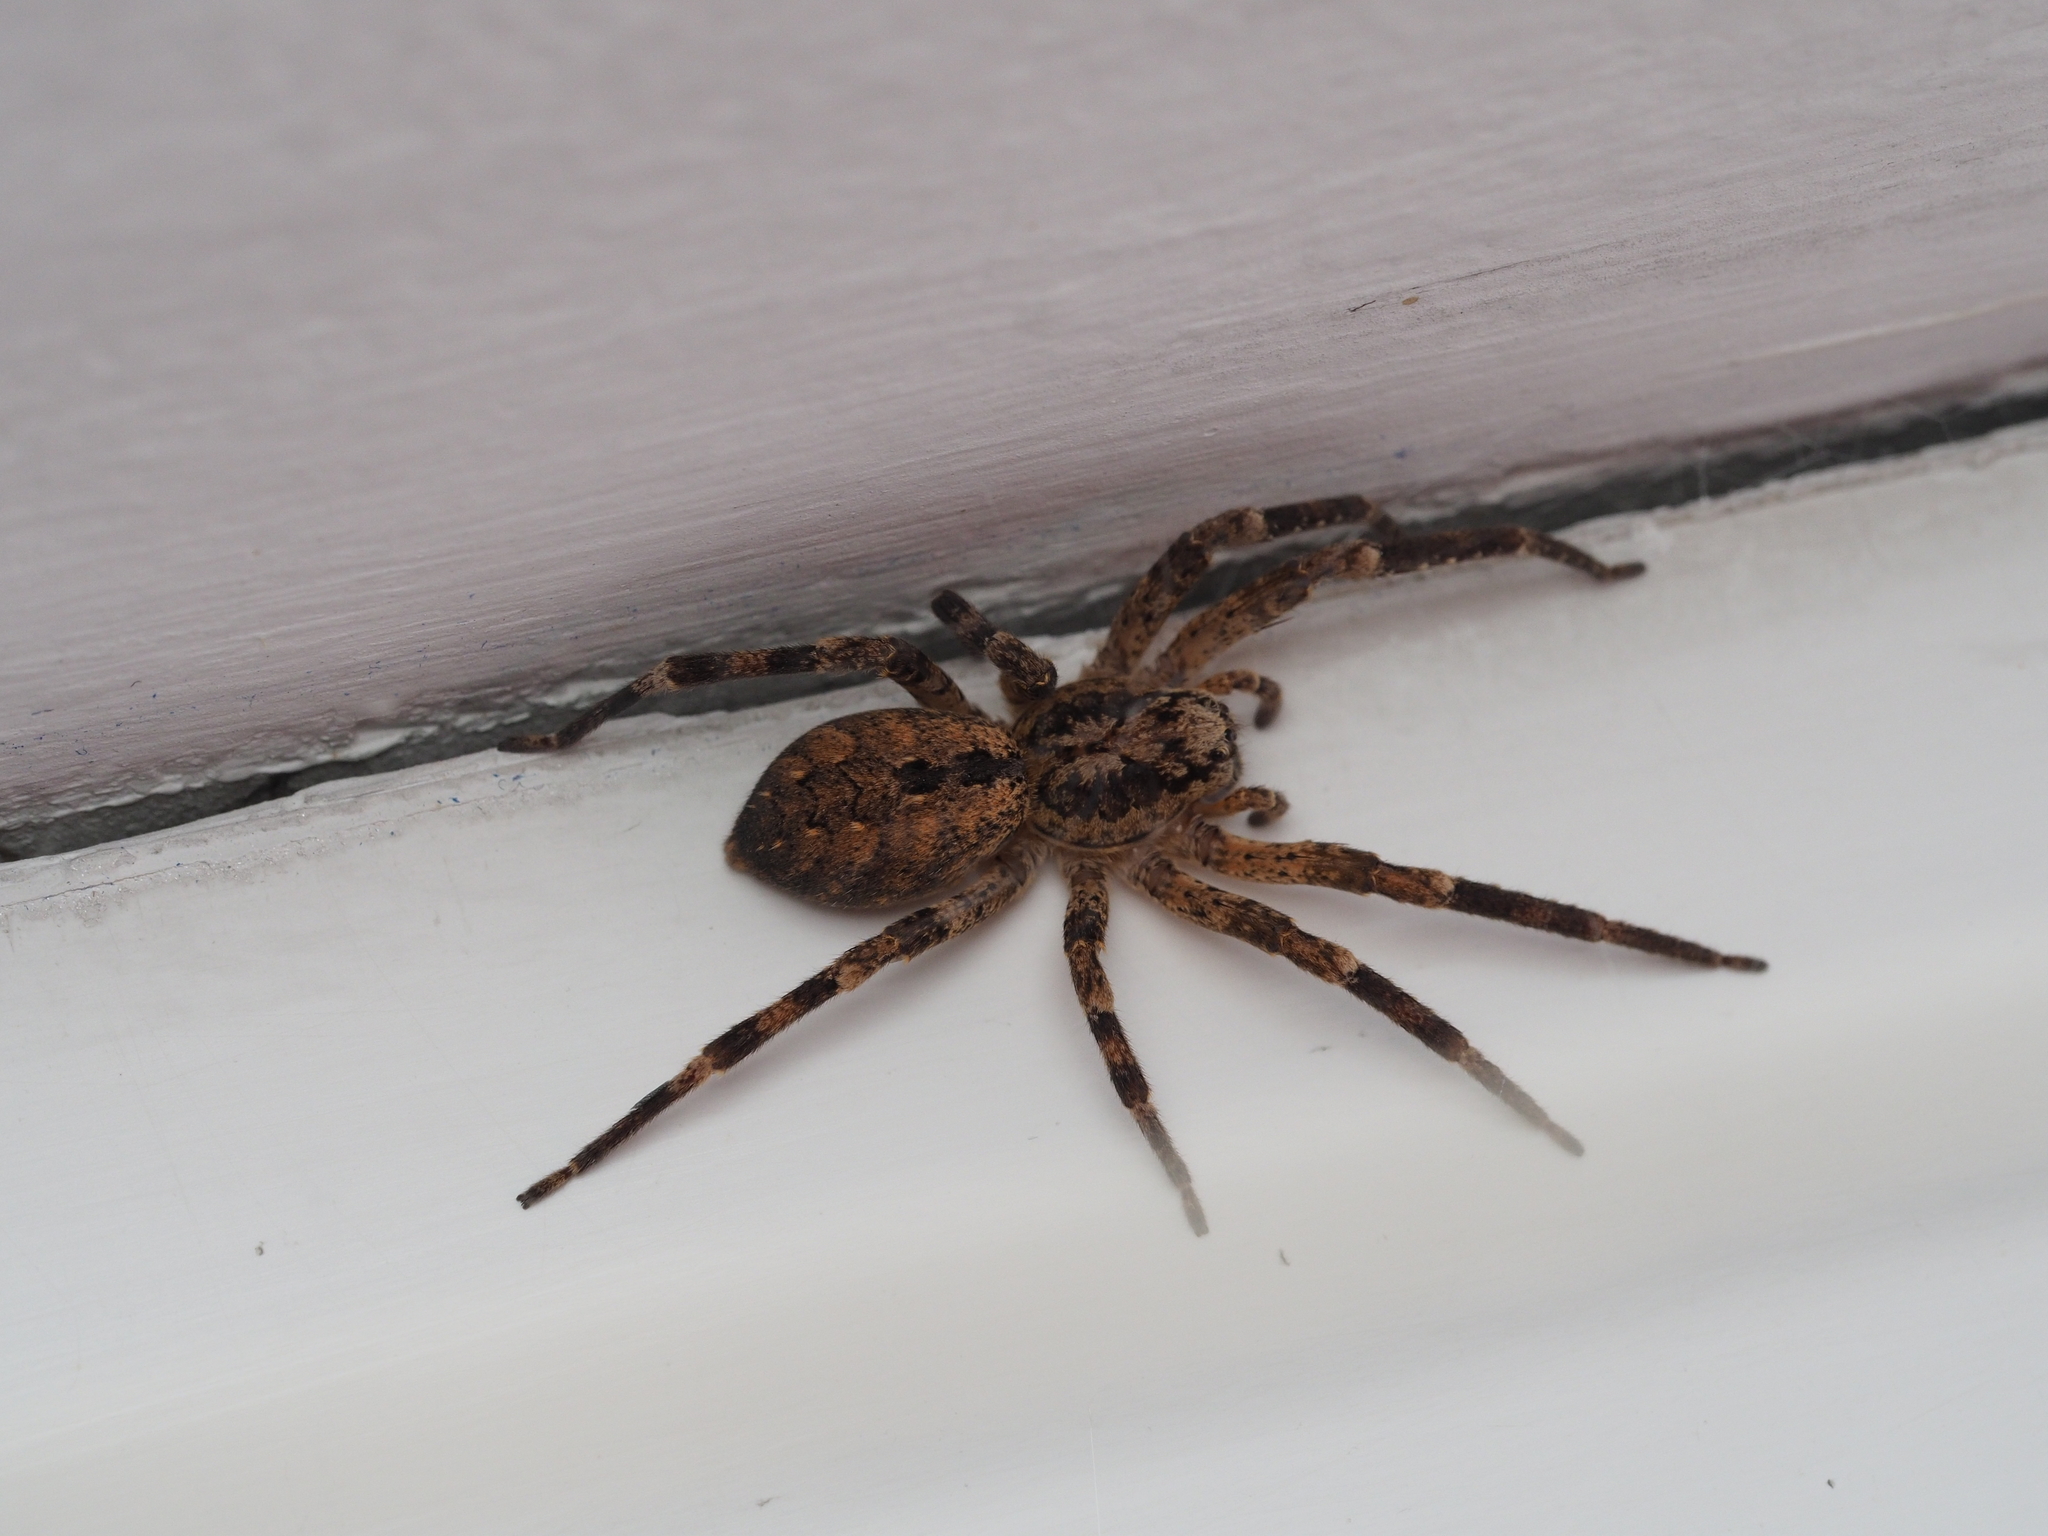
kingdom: Animalia
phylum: Arthropoda
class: Arachnida
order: Araneae
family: Zoropsidae
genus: Zoropsis
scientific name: Zoropsis spinimana
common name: Zoropsid spider
